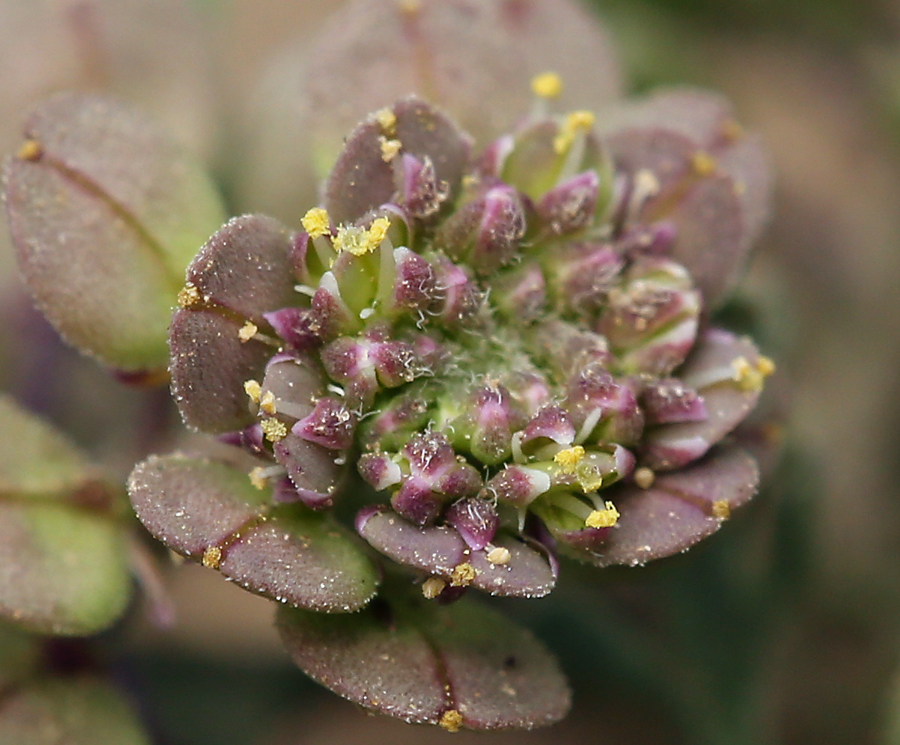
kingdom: Plantae
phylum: Tracheophyta
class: Magnoliopsida
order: Brassicales
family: Brassicaceae
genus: Lepidium
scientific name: Lepidium oblongum
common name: Veiny pepperweed
